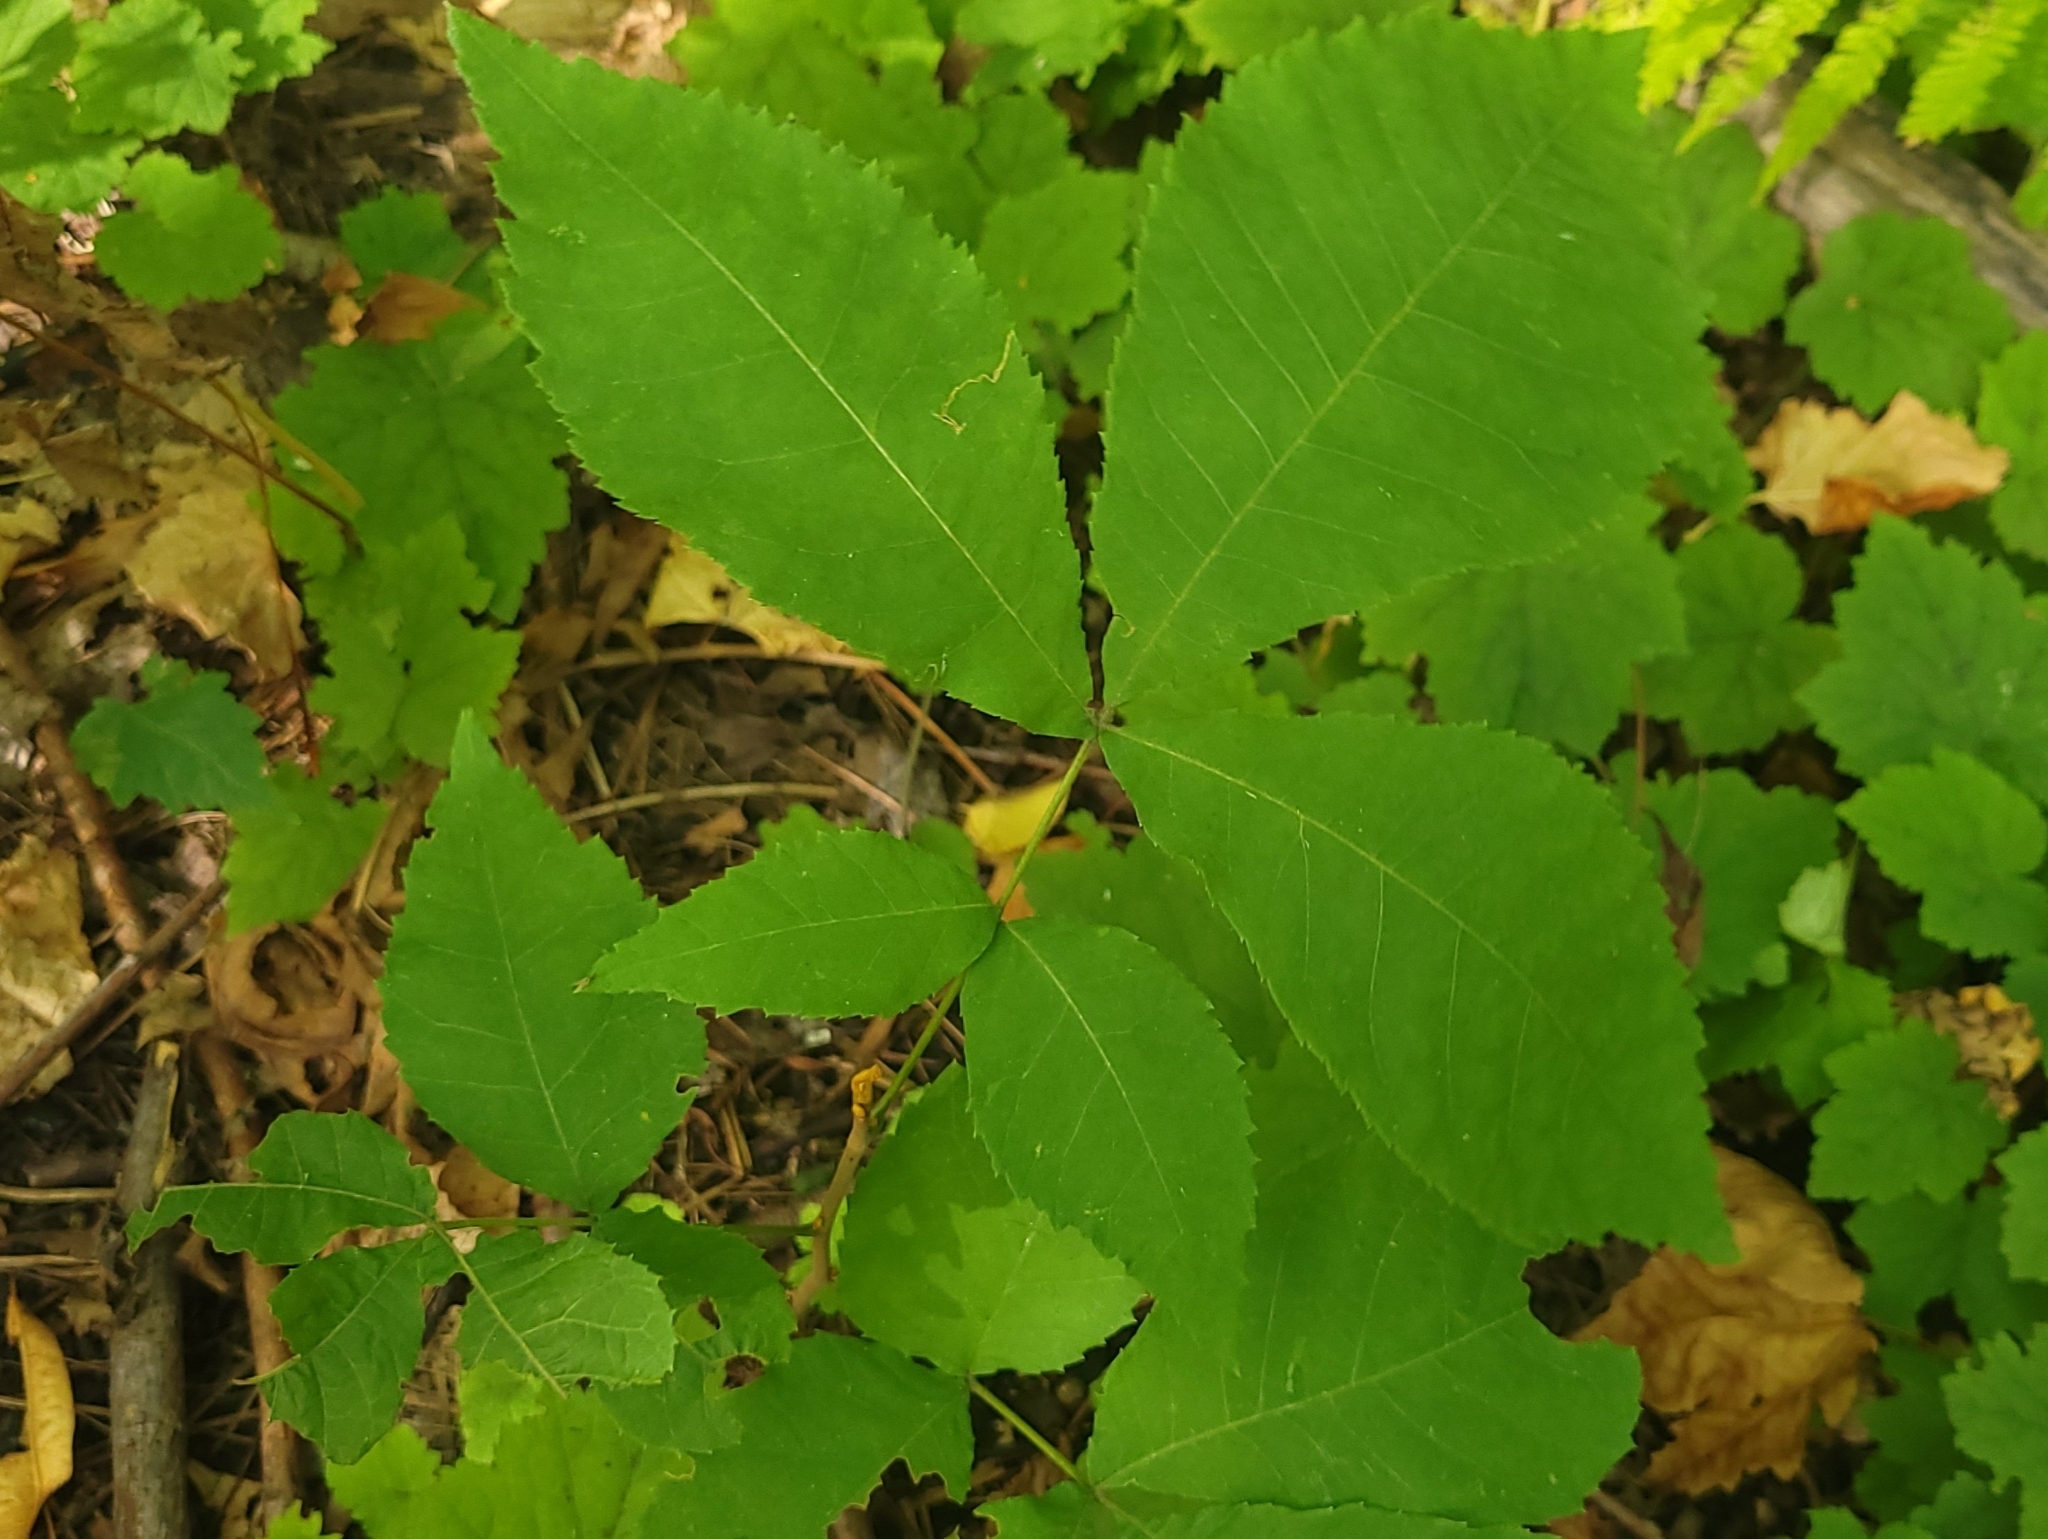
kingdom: Plantae
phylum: Tracheophyta
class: Magnoliopsida
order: Fagales
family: Juglandaceae
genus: Carya
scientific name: Carya cordiformis
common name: Bitternut hickory
